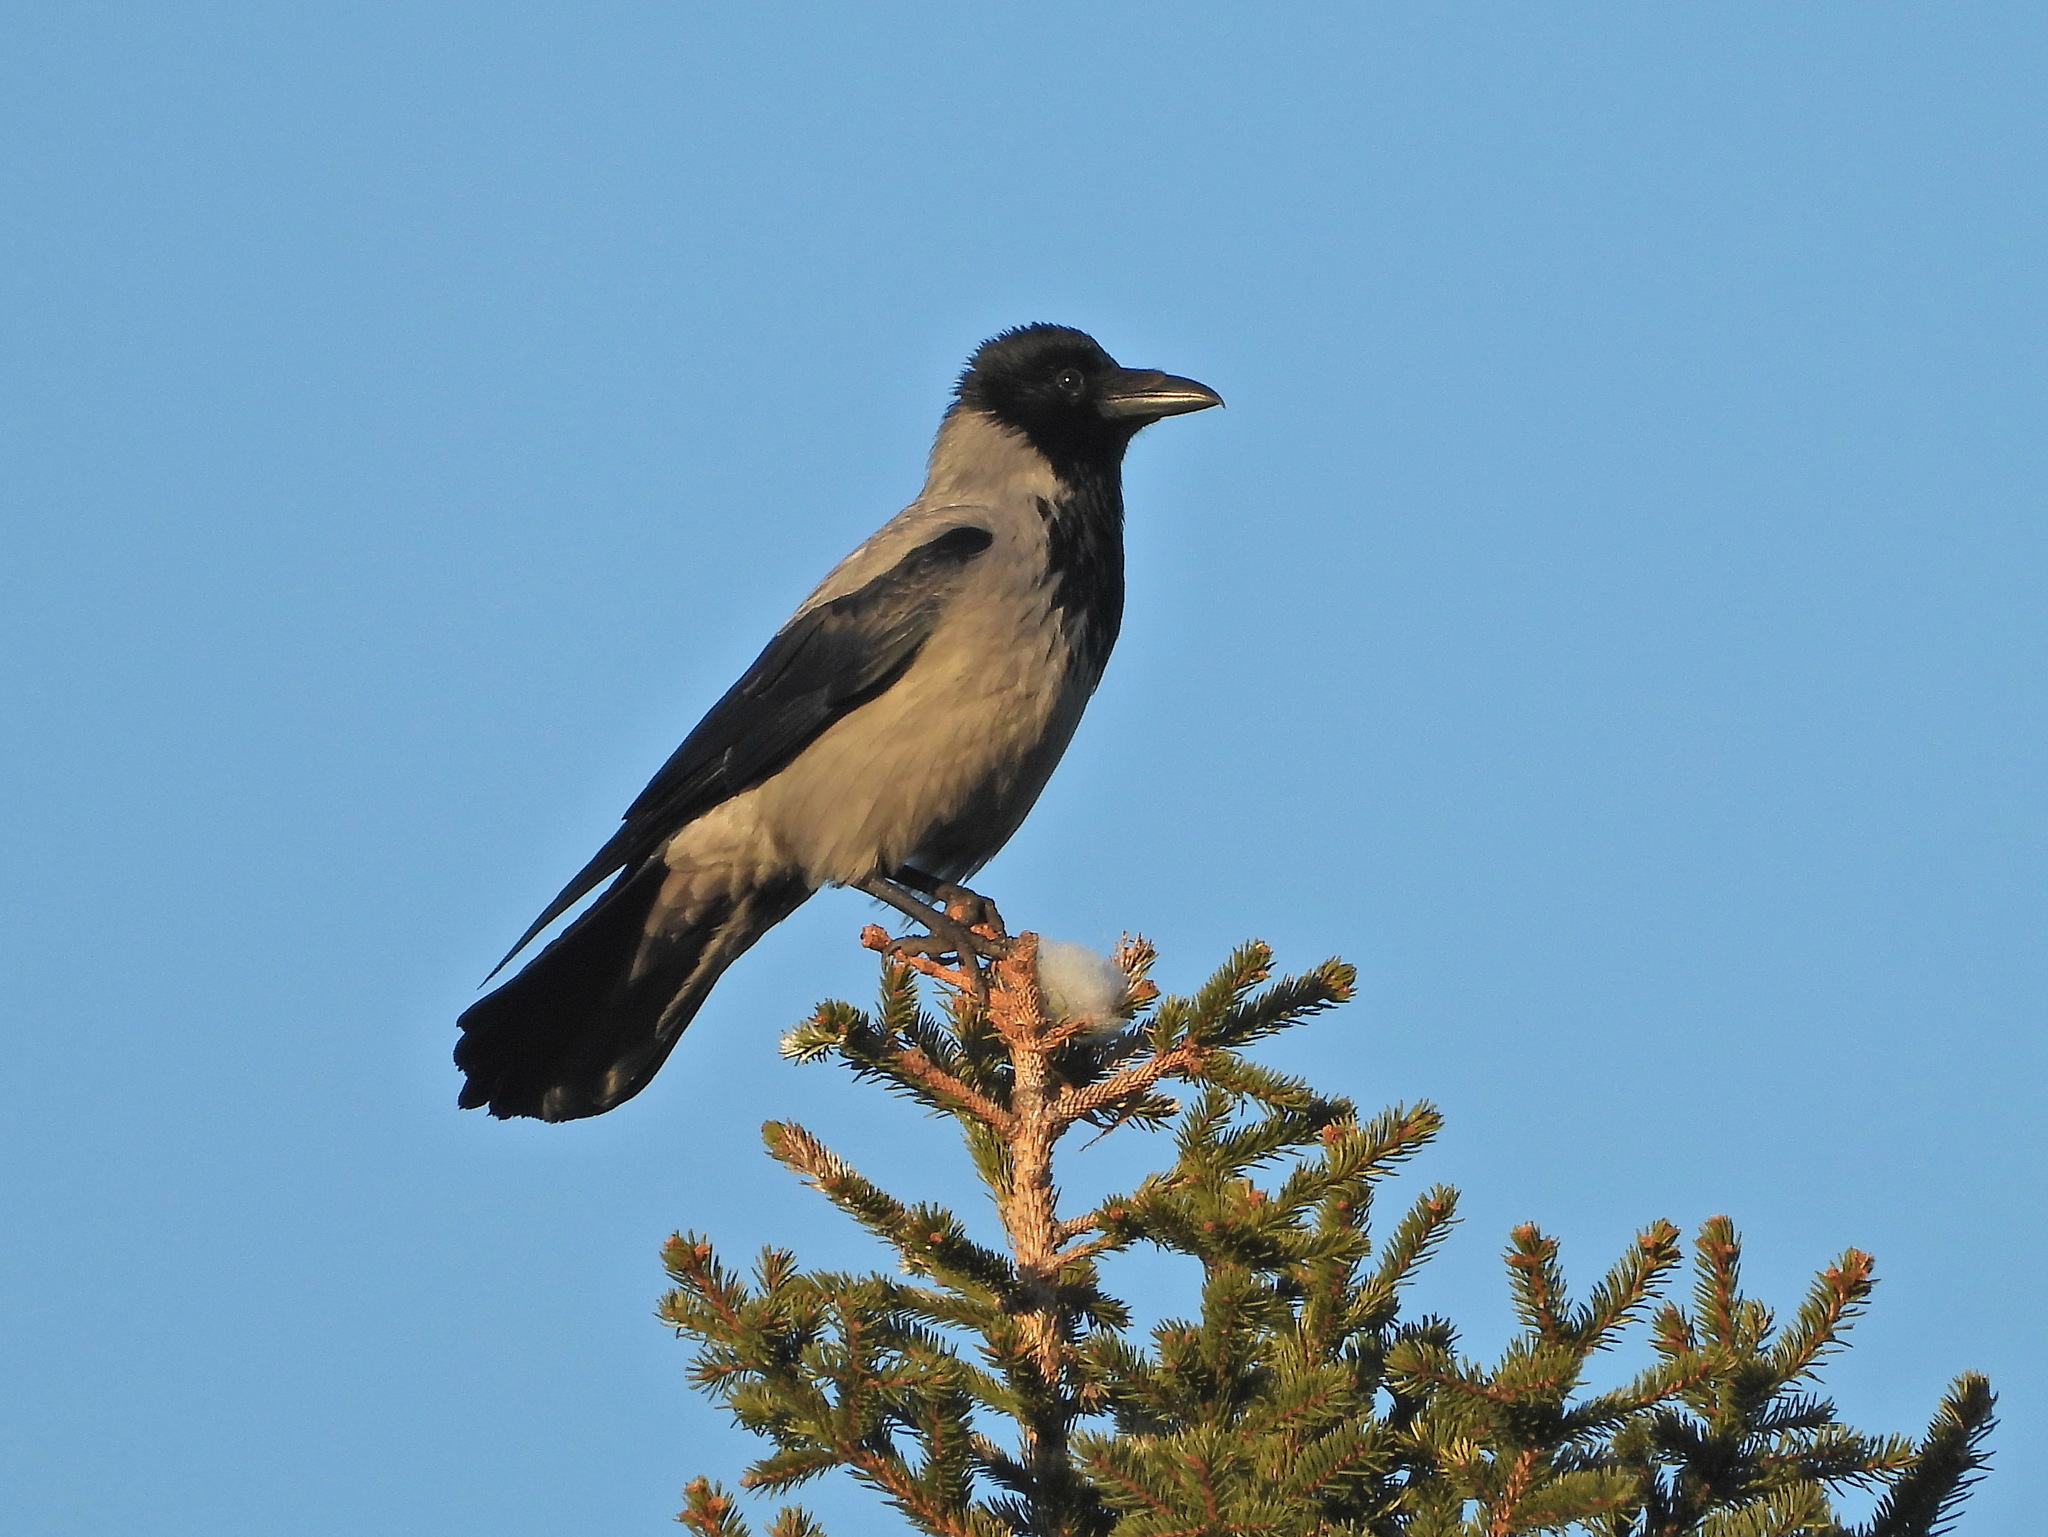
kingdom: Animalia
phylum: Chordata
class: Aves
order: Passeriformes
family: Corvidae
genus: Corvus
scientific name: Corvus cornix
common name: Hooded crow
